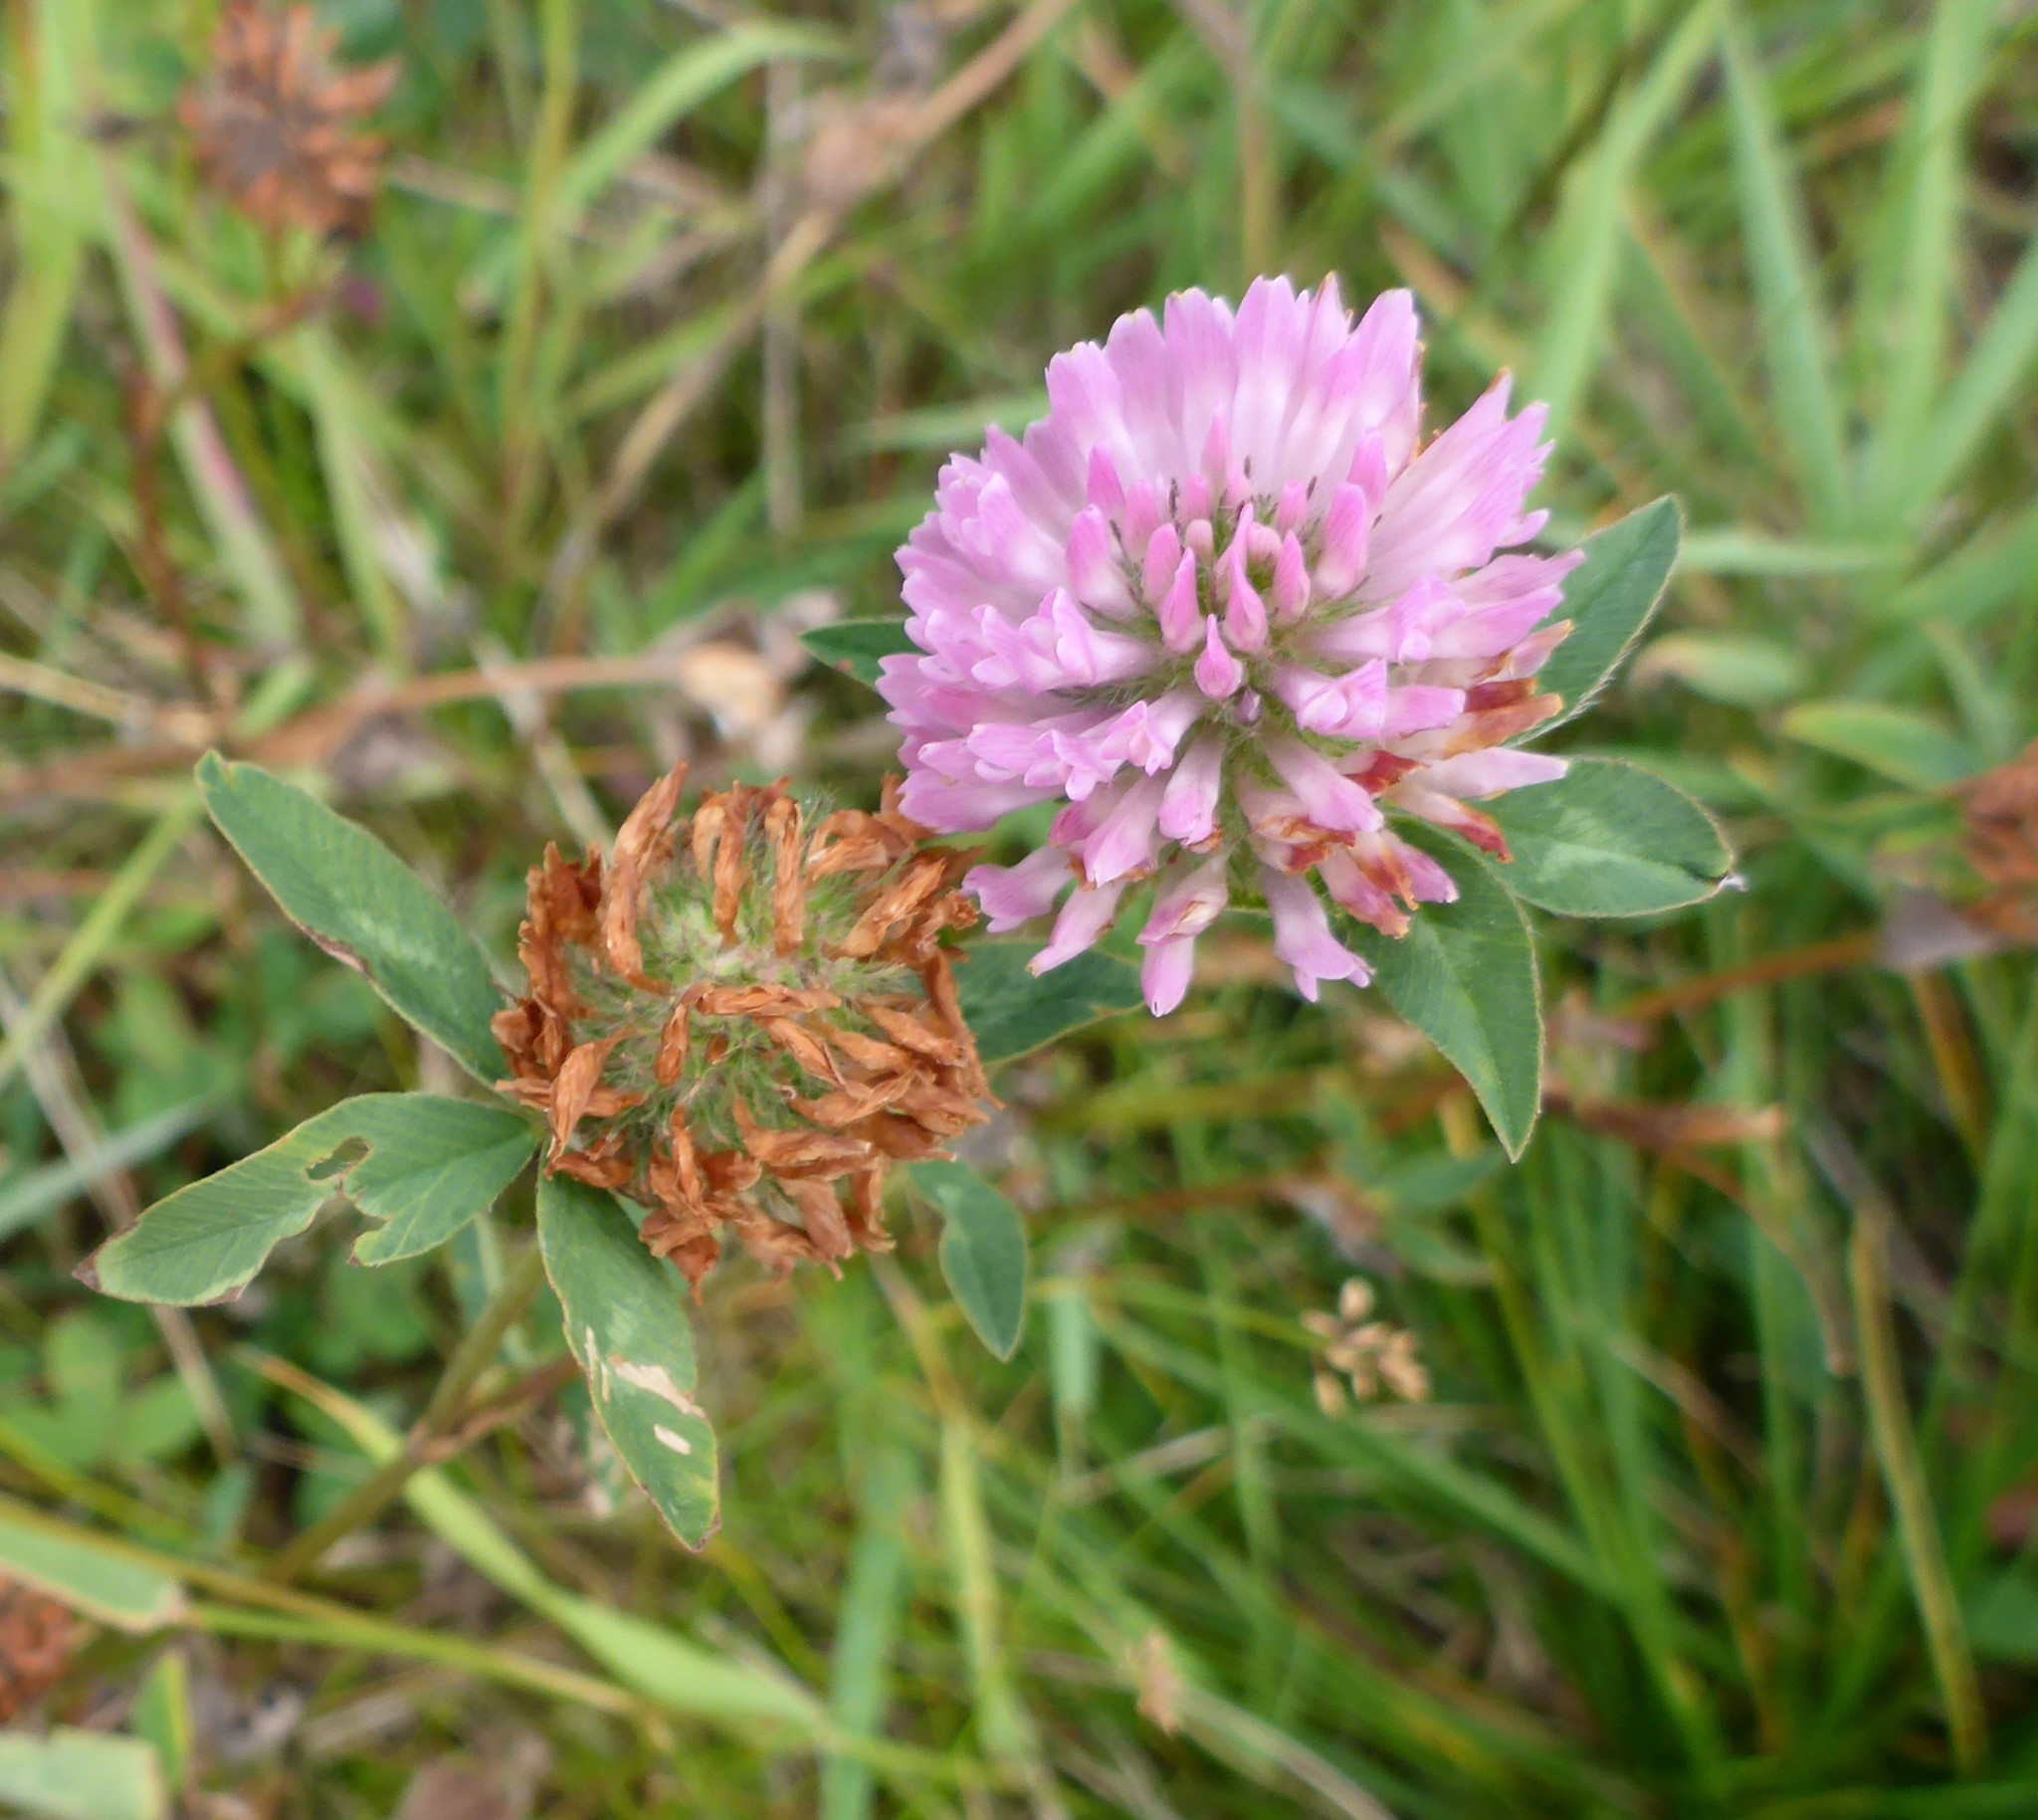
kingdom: Plantae
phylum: Tracheophyta
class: Magnoliopsida
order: Fabales
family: Fabaceae
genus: Trifolium
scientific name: Trifolium pratense
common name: Red clover
